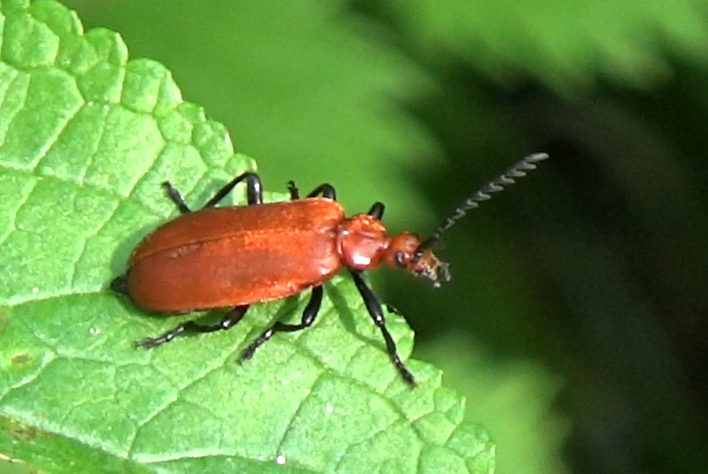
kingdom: Animalia
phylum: Arthropoda
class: Insecta
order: Coleoptera
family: Pyrochroidae
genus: Pyrochroa
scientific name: Pyrochroa serraticornis
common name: Red-headed cardinal beetle
